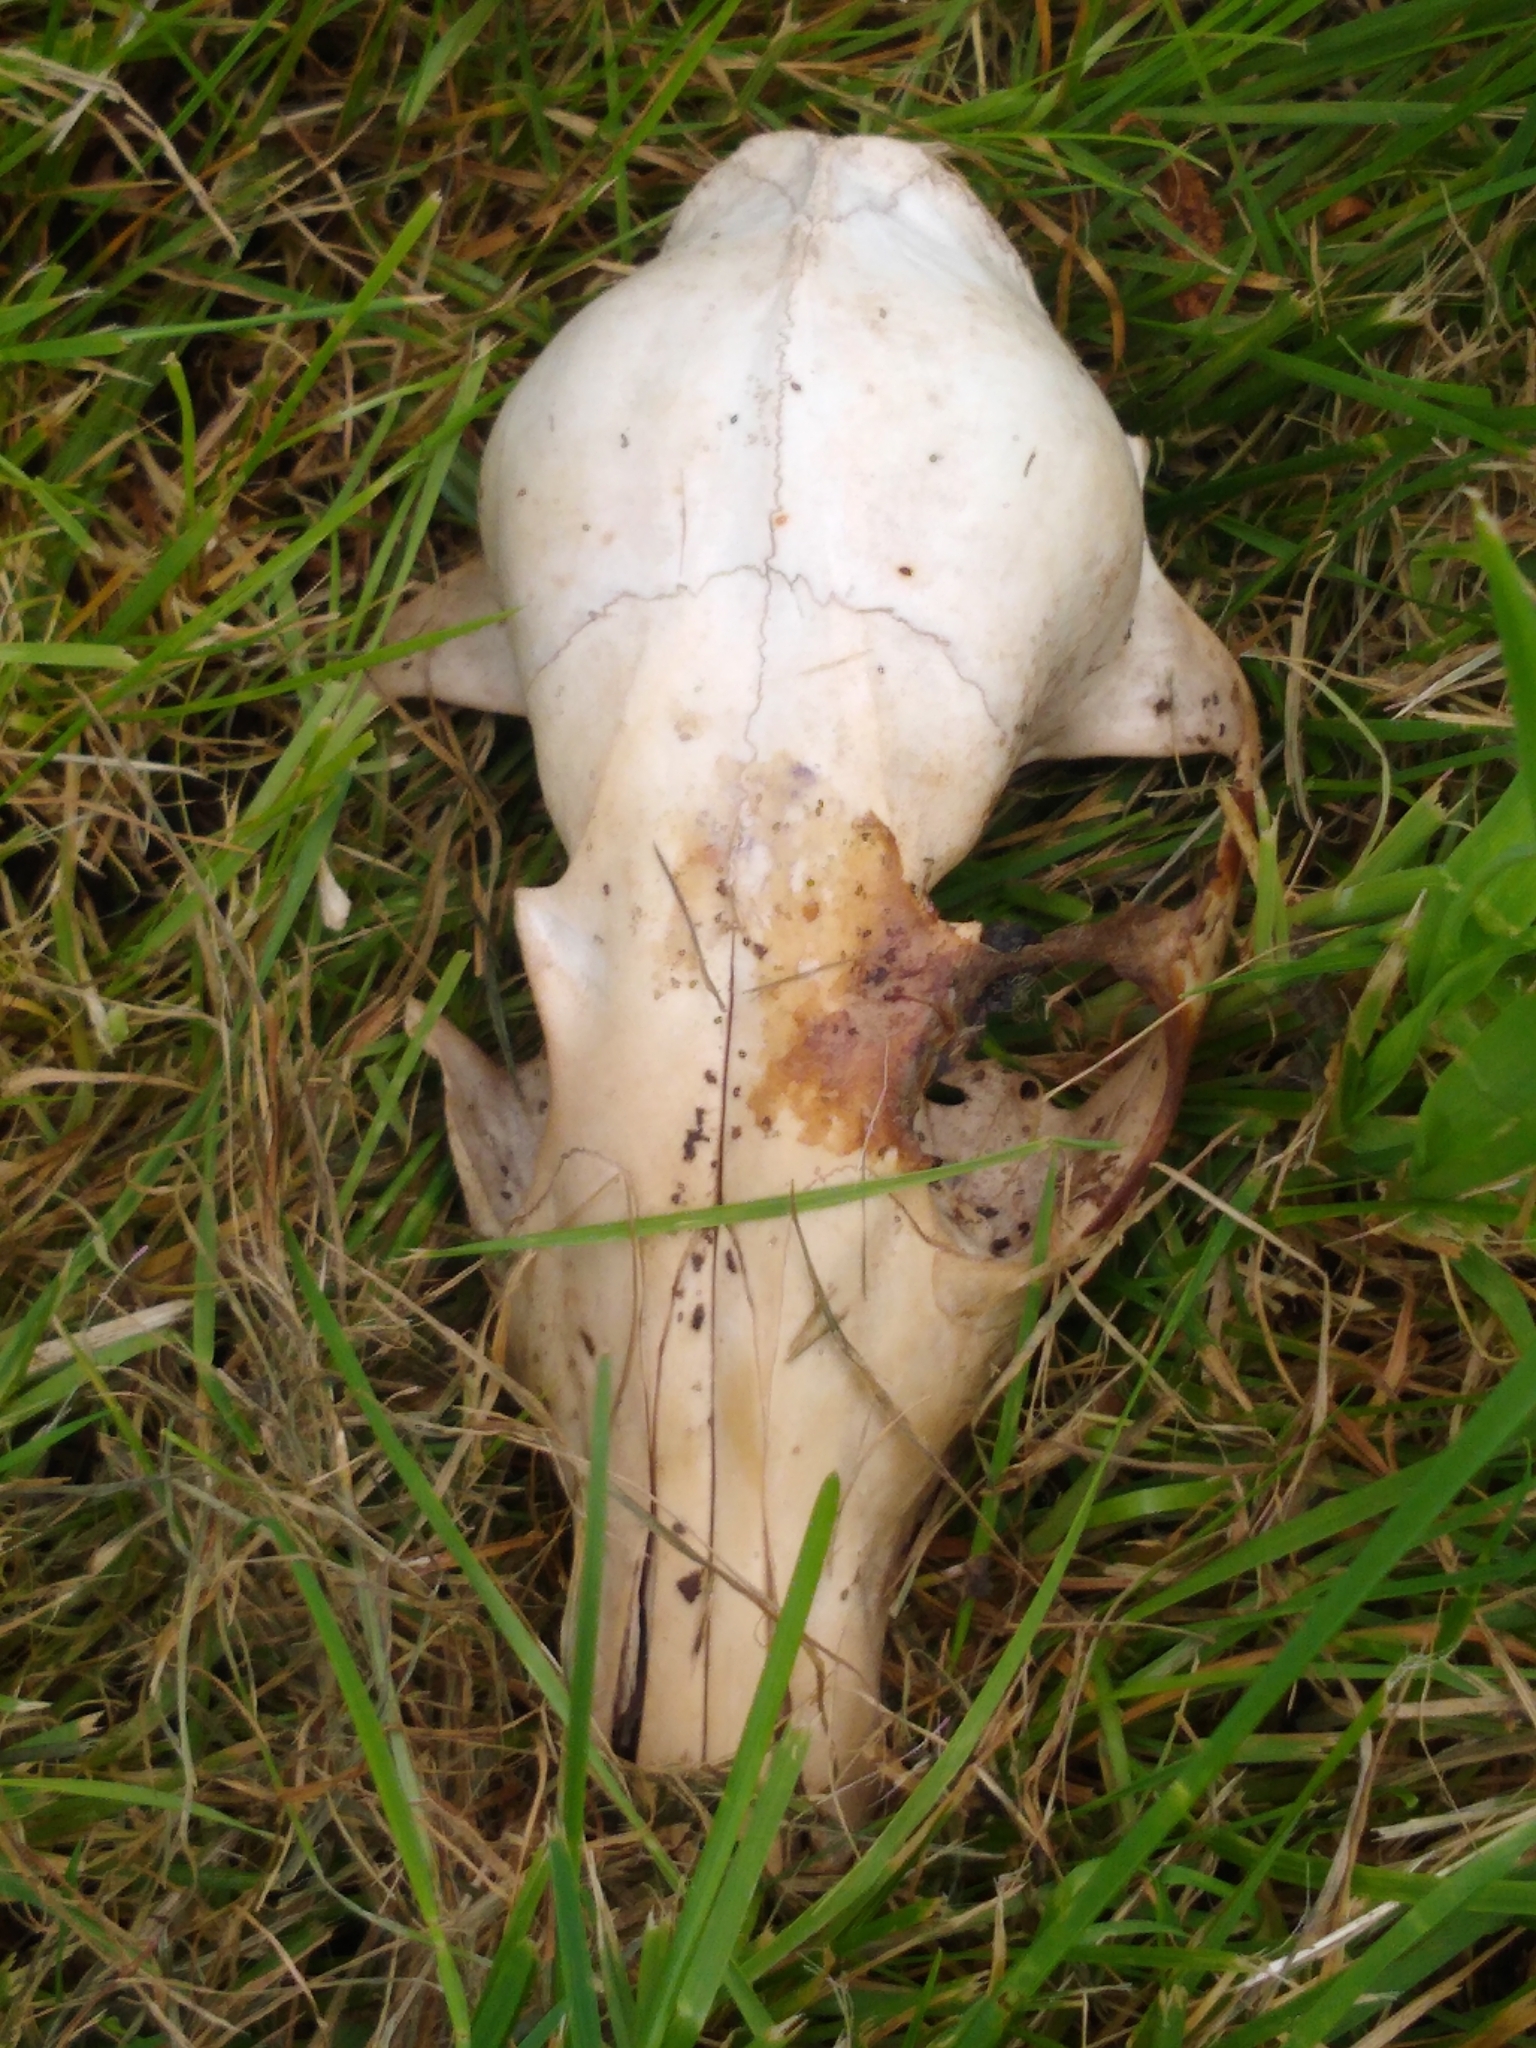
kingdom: Animalia
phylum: Chordata
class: Mammalia
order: Carnivora
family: Canidae
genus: Vulpes
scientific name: Vulpes vulpes
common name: Red fox
